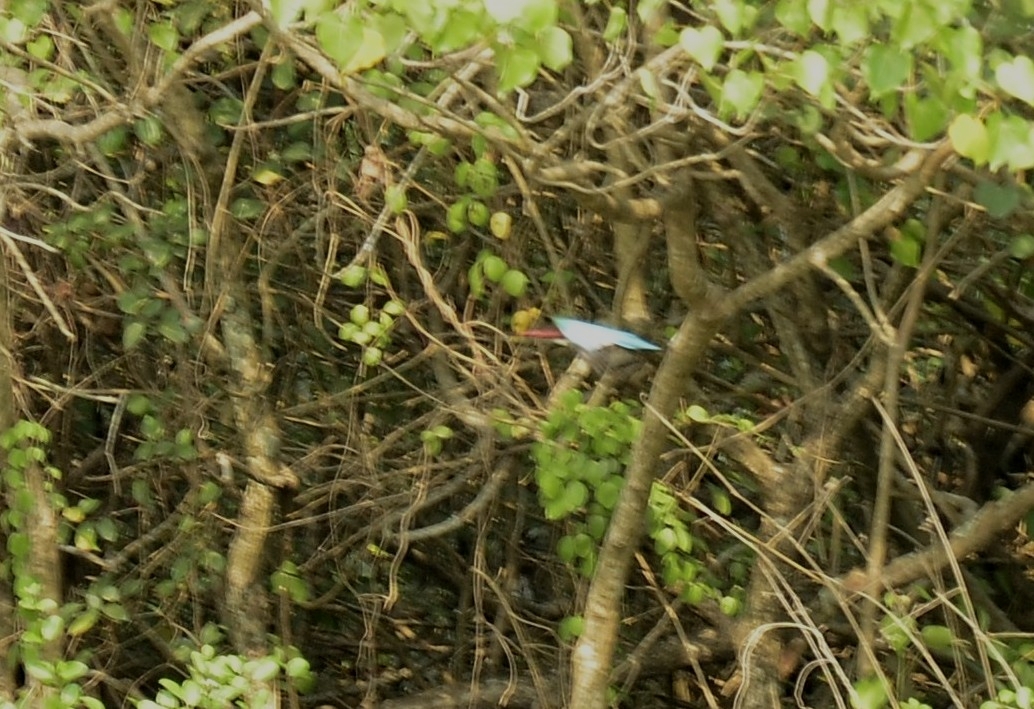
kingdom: Animalia
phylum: Chordata
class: Aves
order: Coraciiformes
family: Alcedinidae
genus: Halcyon
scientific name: Halcyon smyrnensis
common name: White-throated kingfisher
